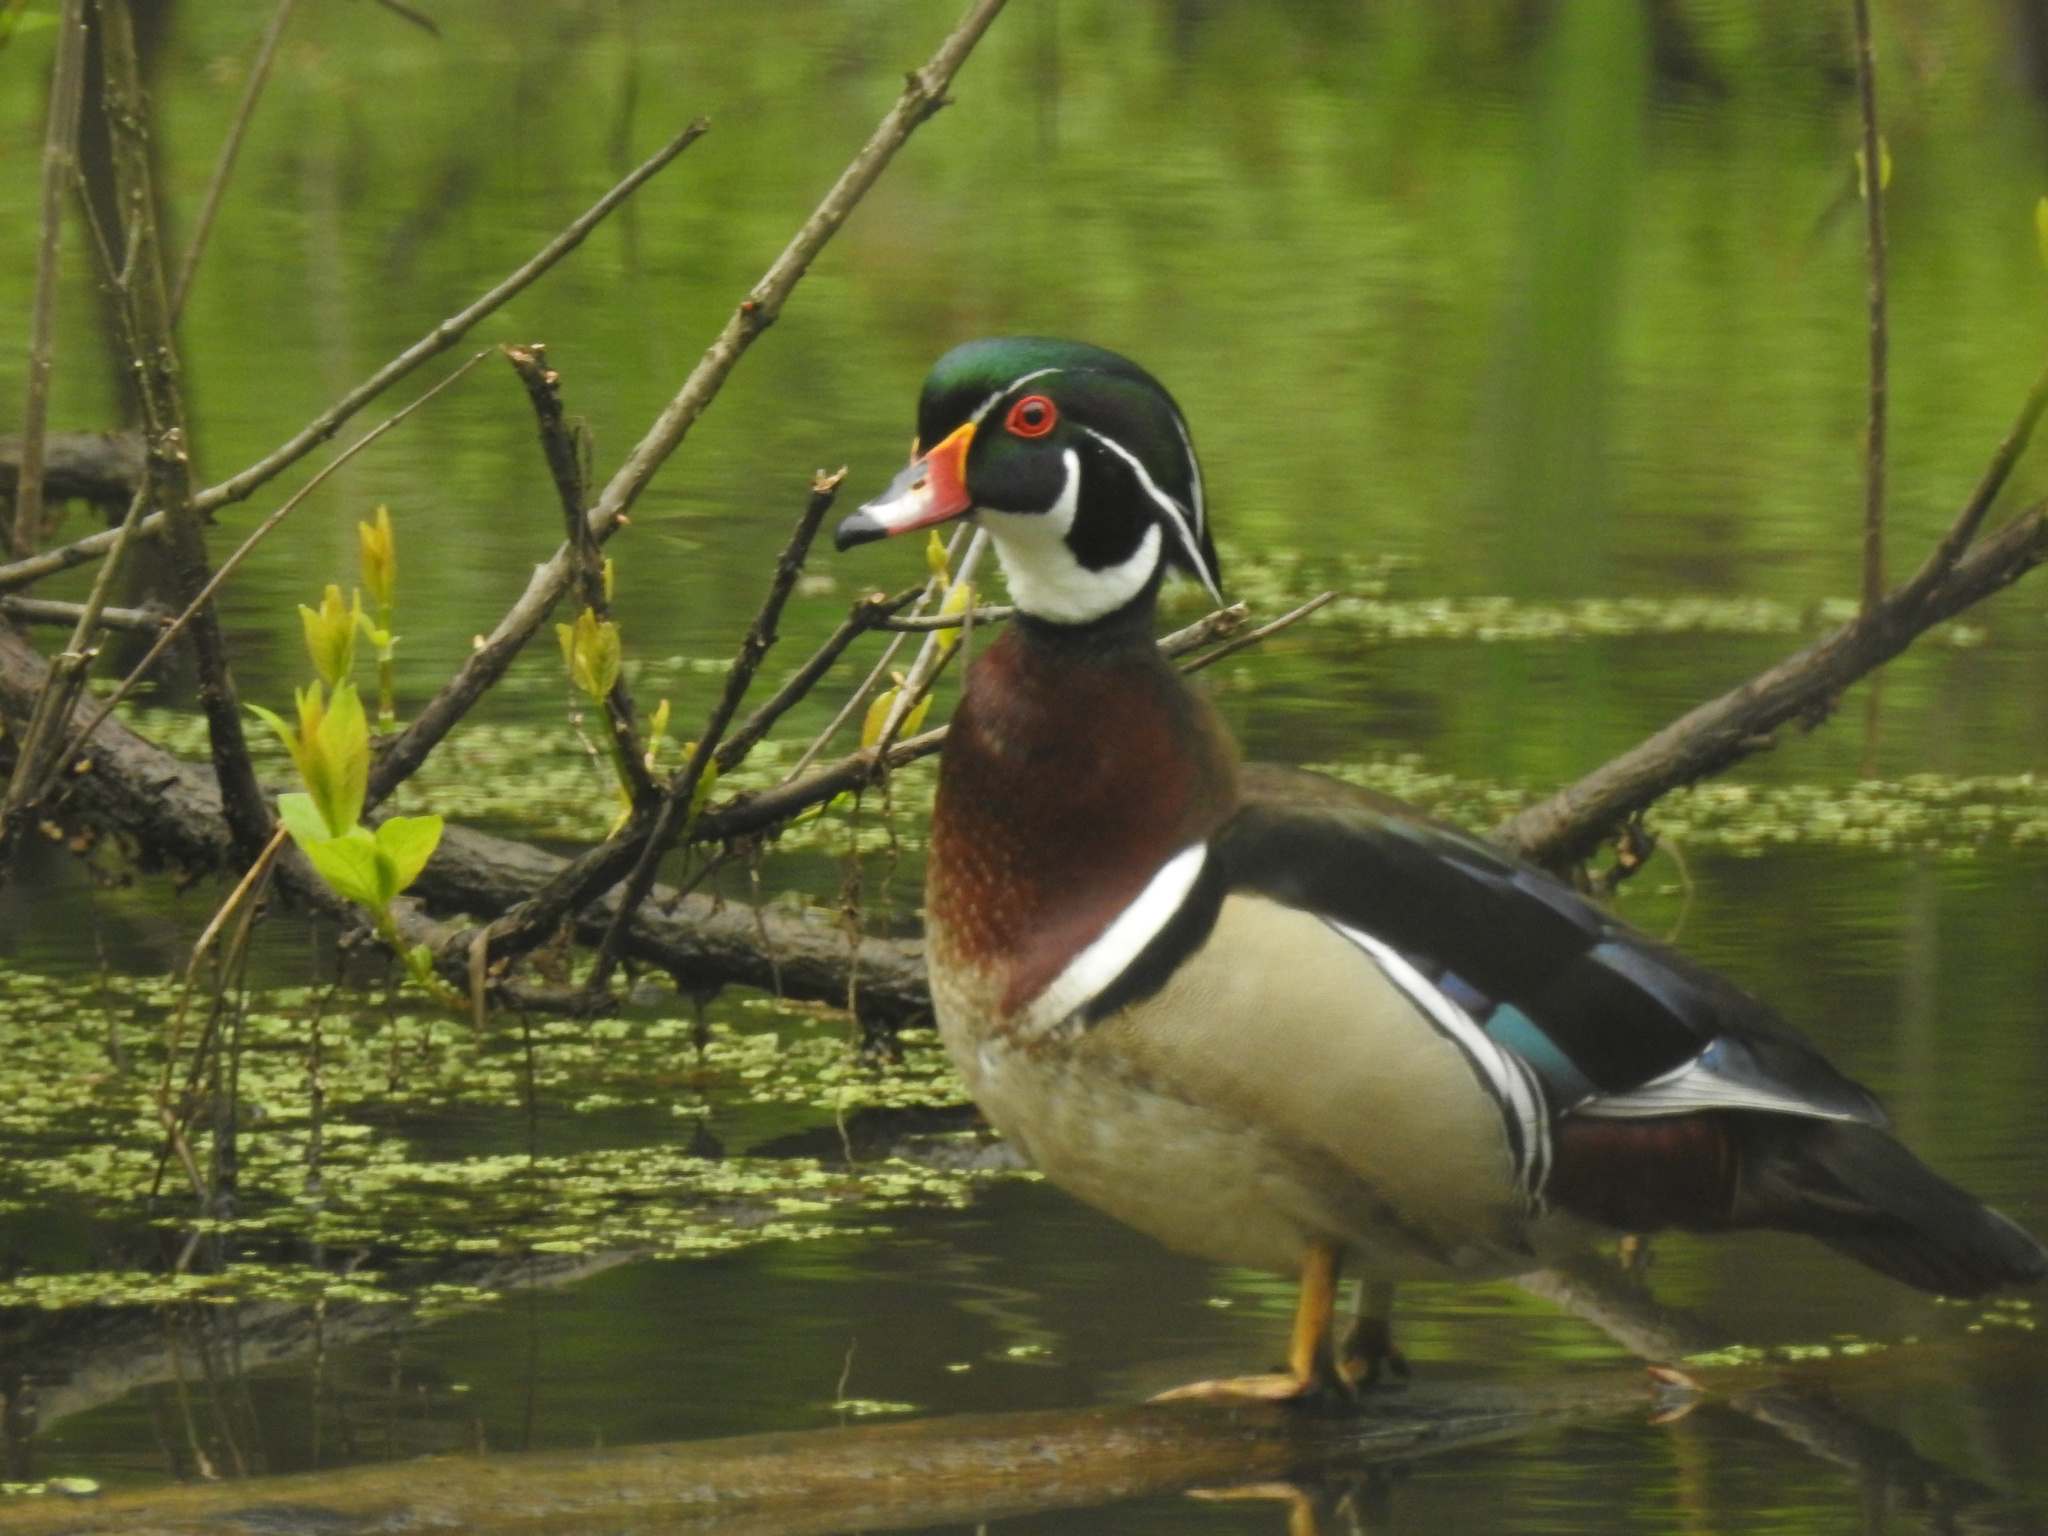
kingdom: Animalia
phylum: Chordata
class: Aves
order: Anseriformes
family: Anatidae
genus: Aix
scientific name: Aix sponsa
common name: Wood duck
